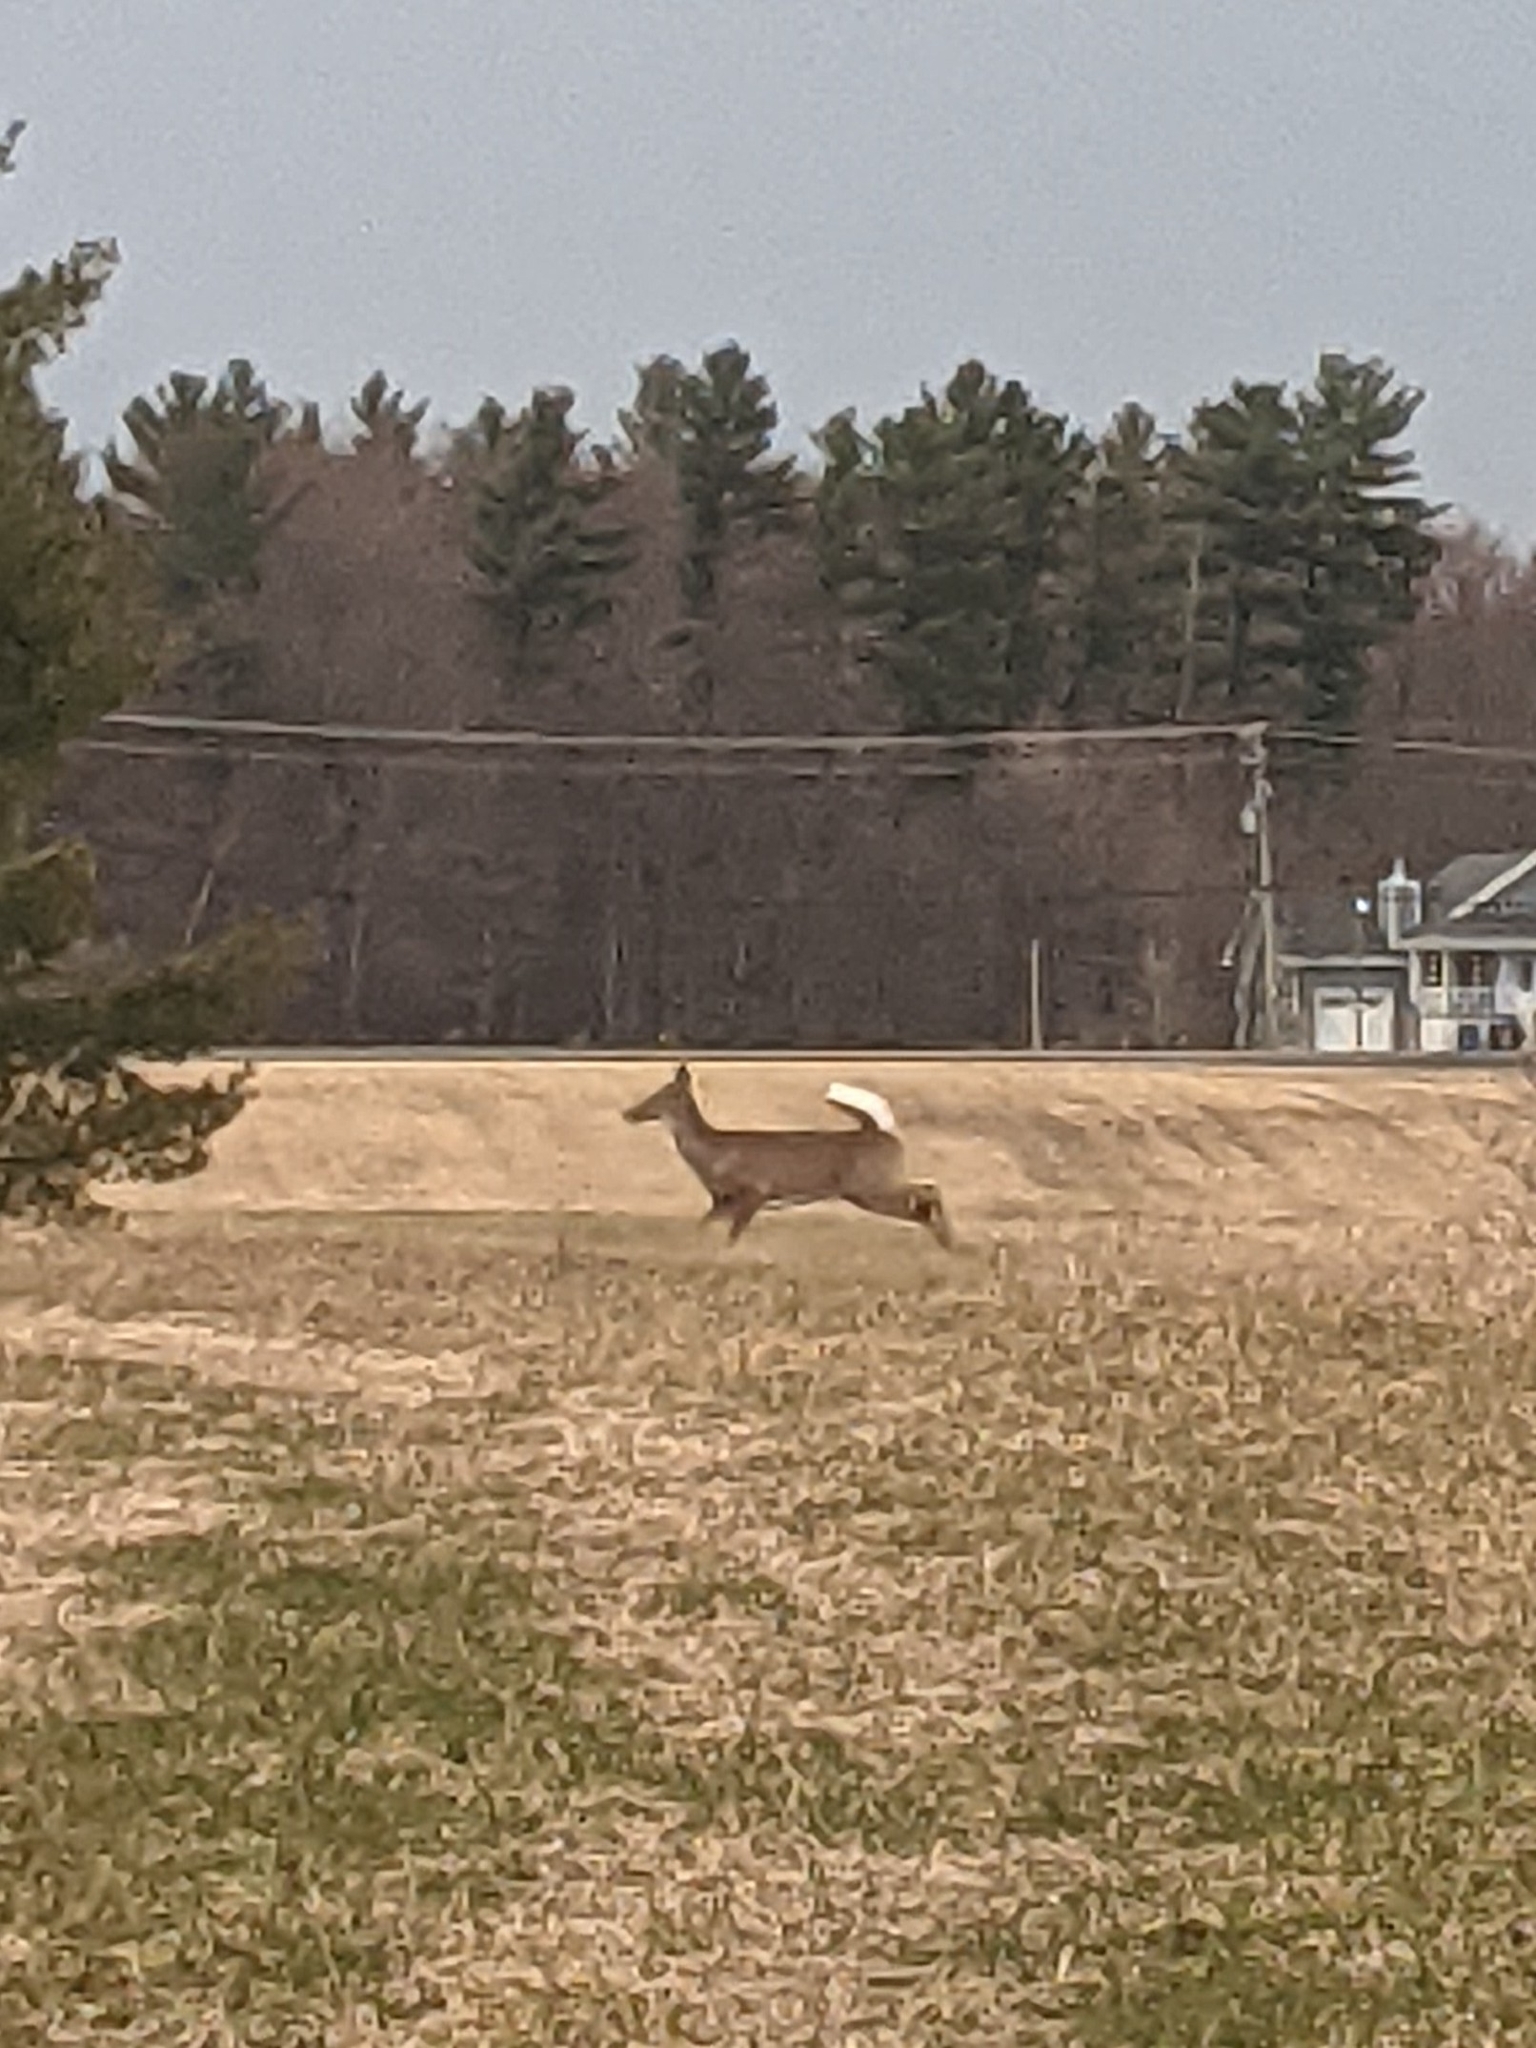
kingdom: Animalia
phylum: Chordata
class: Mammalia
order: Artiodactyla
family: Cervidae
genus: Odocoileus
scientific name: Odocoileus virginianus
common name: White-tailed deer
